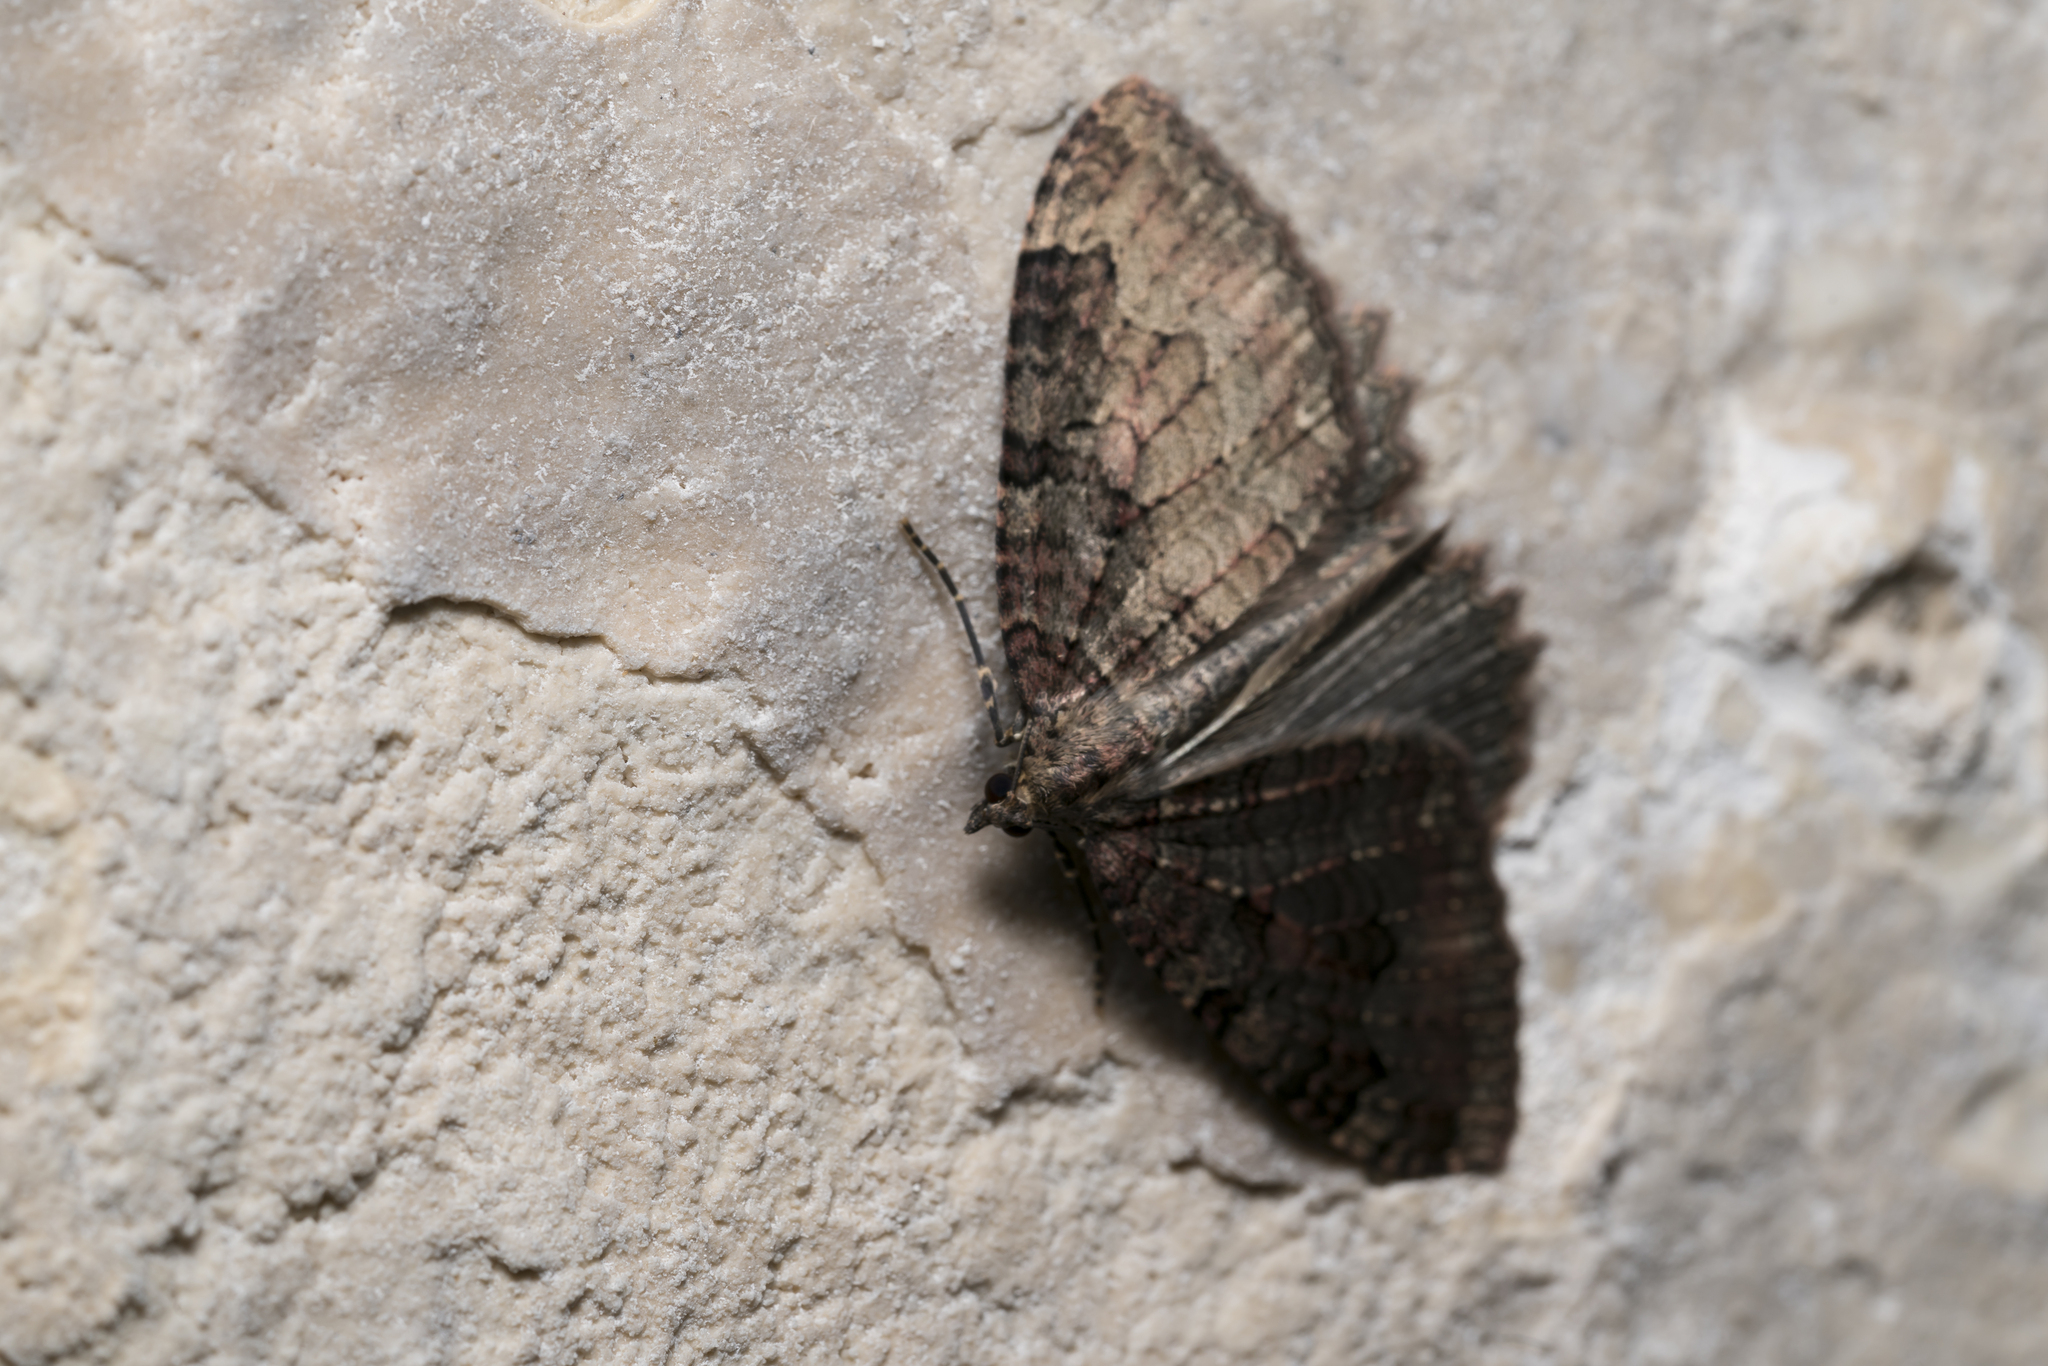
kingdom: Animalia
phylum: Arthropoda
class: Insecta
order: Lepidoptera
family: Geometridae
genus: Triphosa
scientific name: Triphosa dubitata
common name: Tissue
